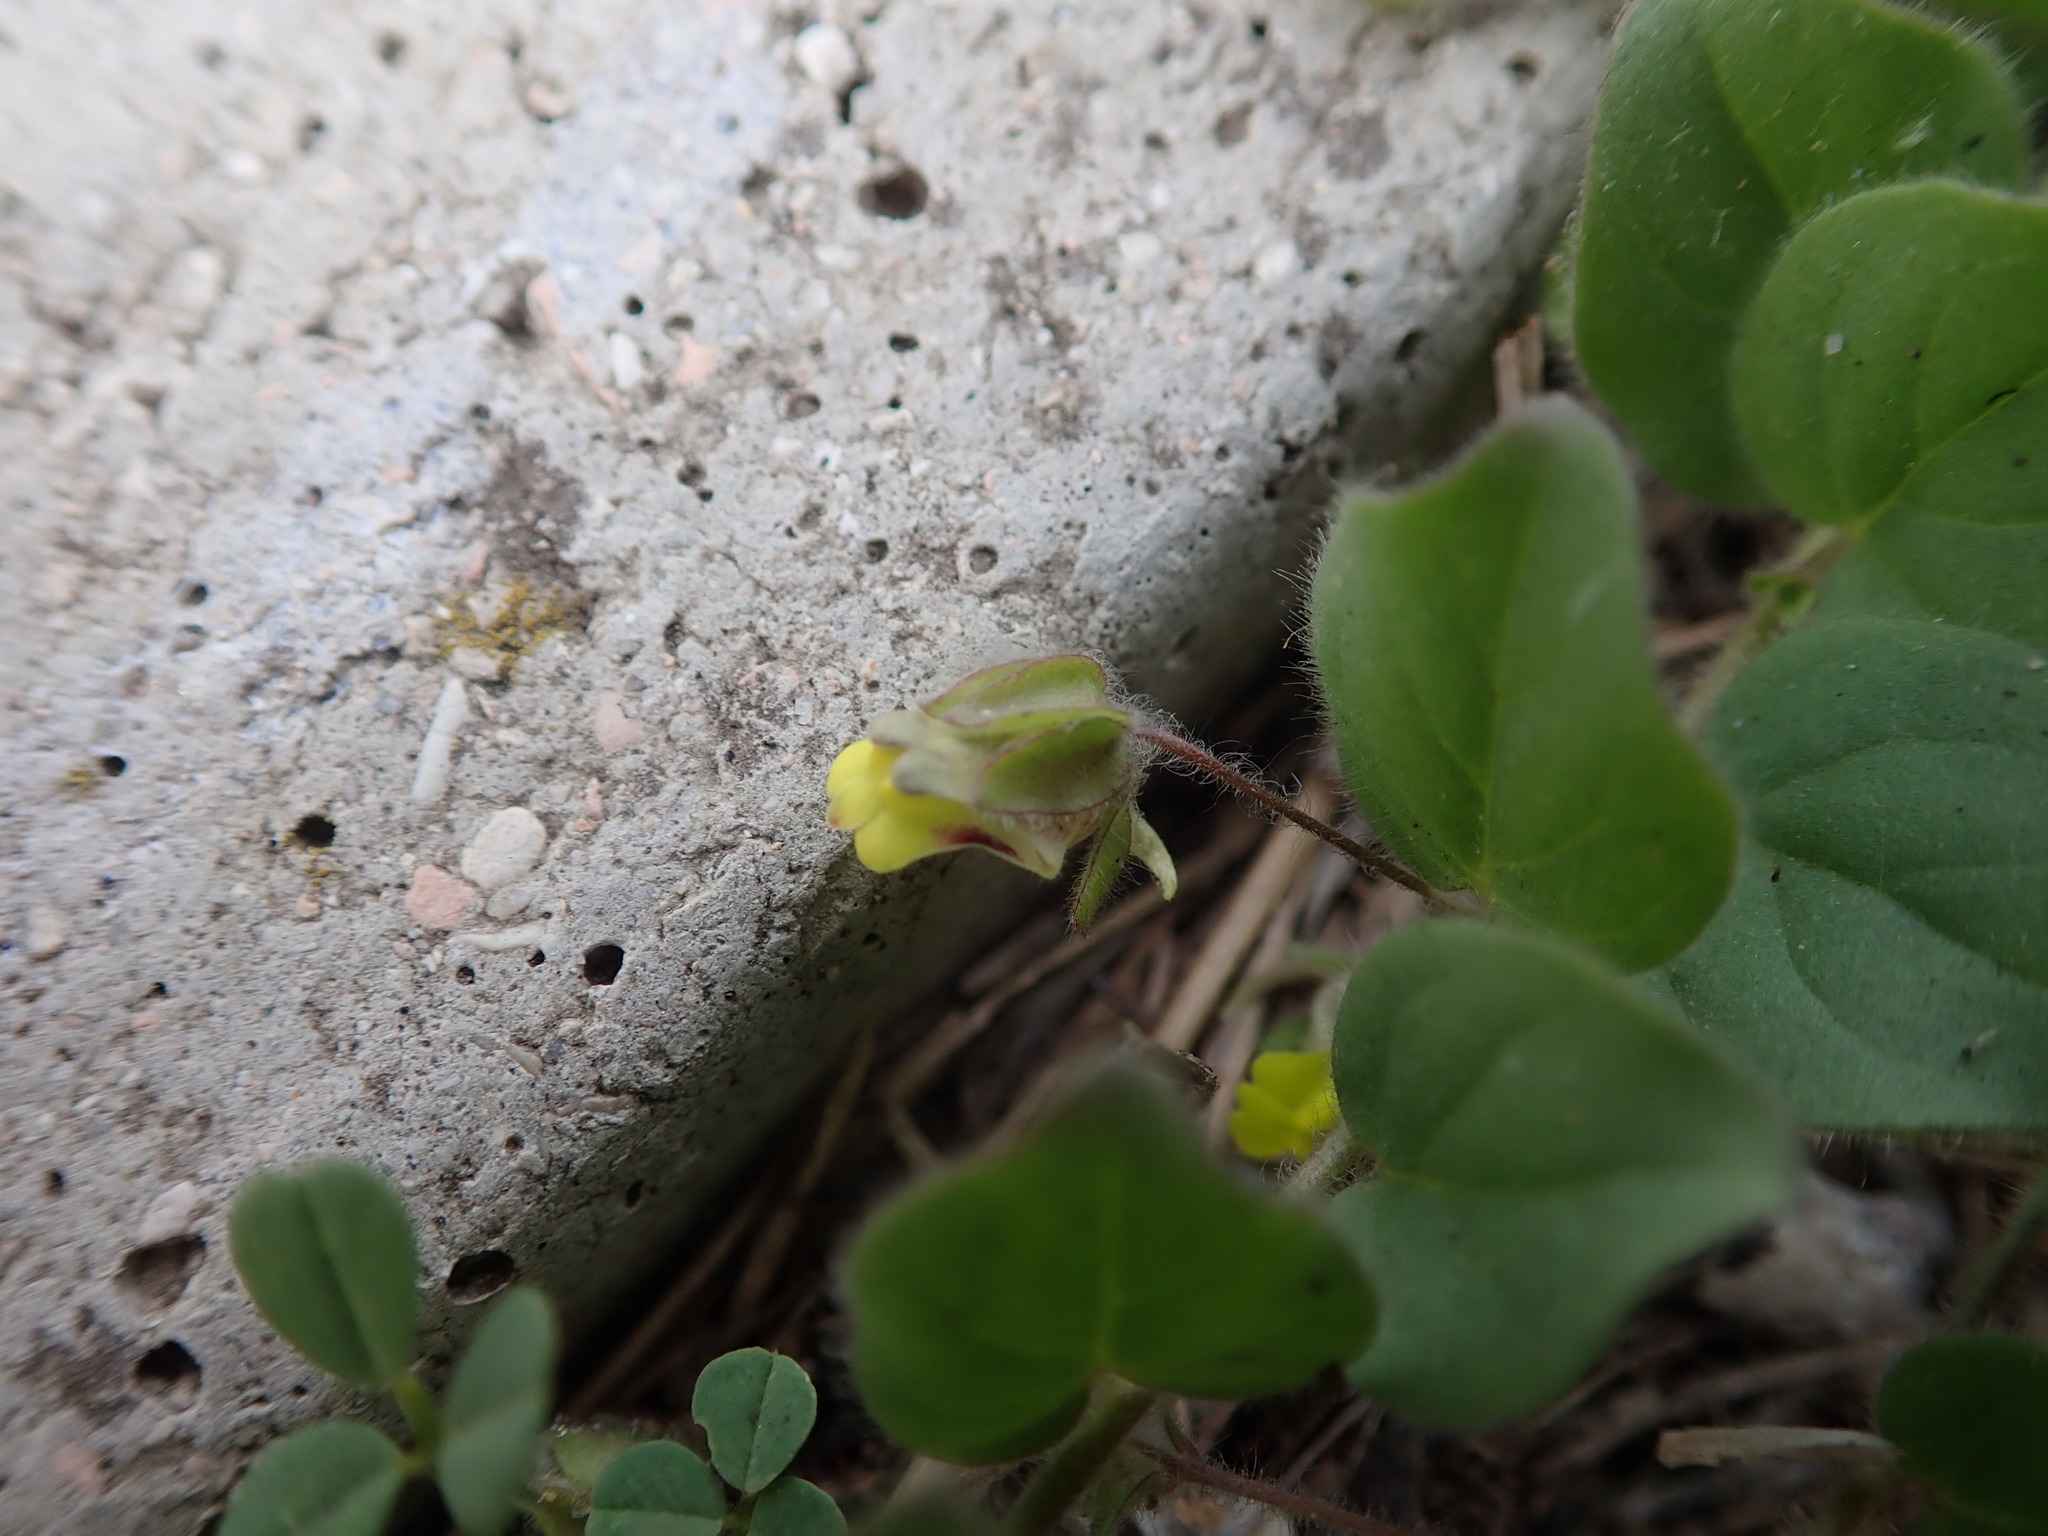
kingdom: Plantae
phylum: Tracheophyta
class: Magnoliopsida
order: Lamiales
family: Plantaginaceae
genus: Kickxia
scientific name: Kickxia spuria
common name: Round-leaved fluellen
